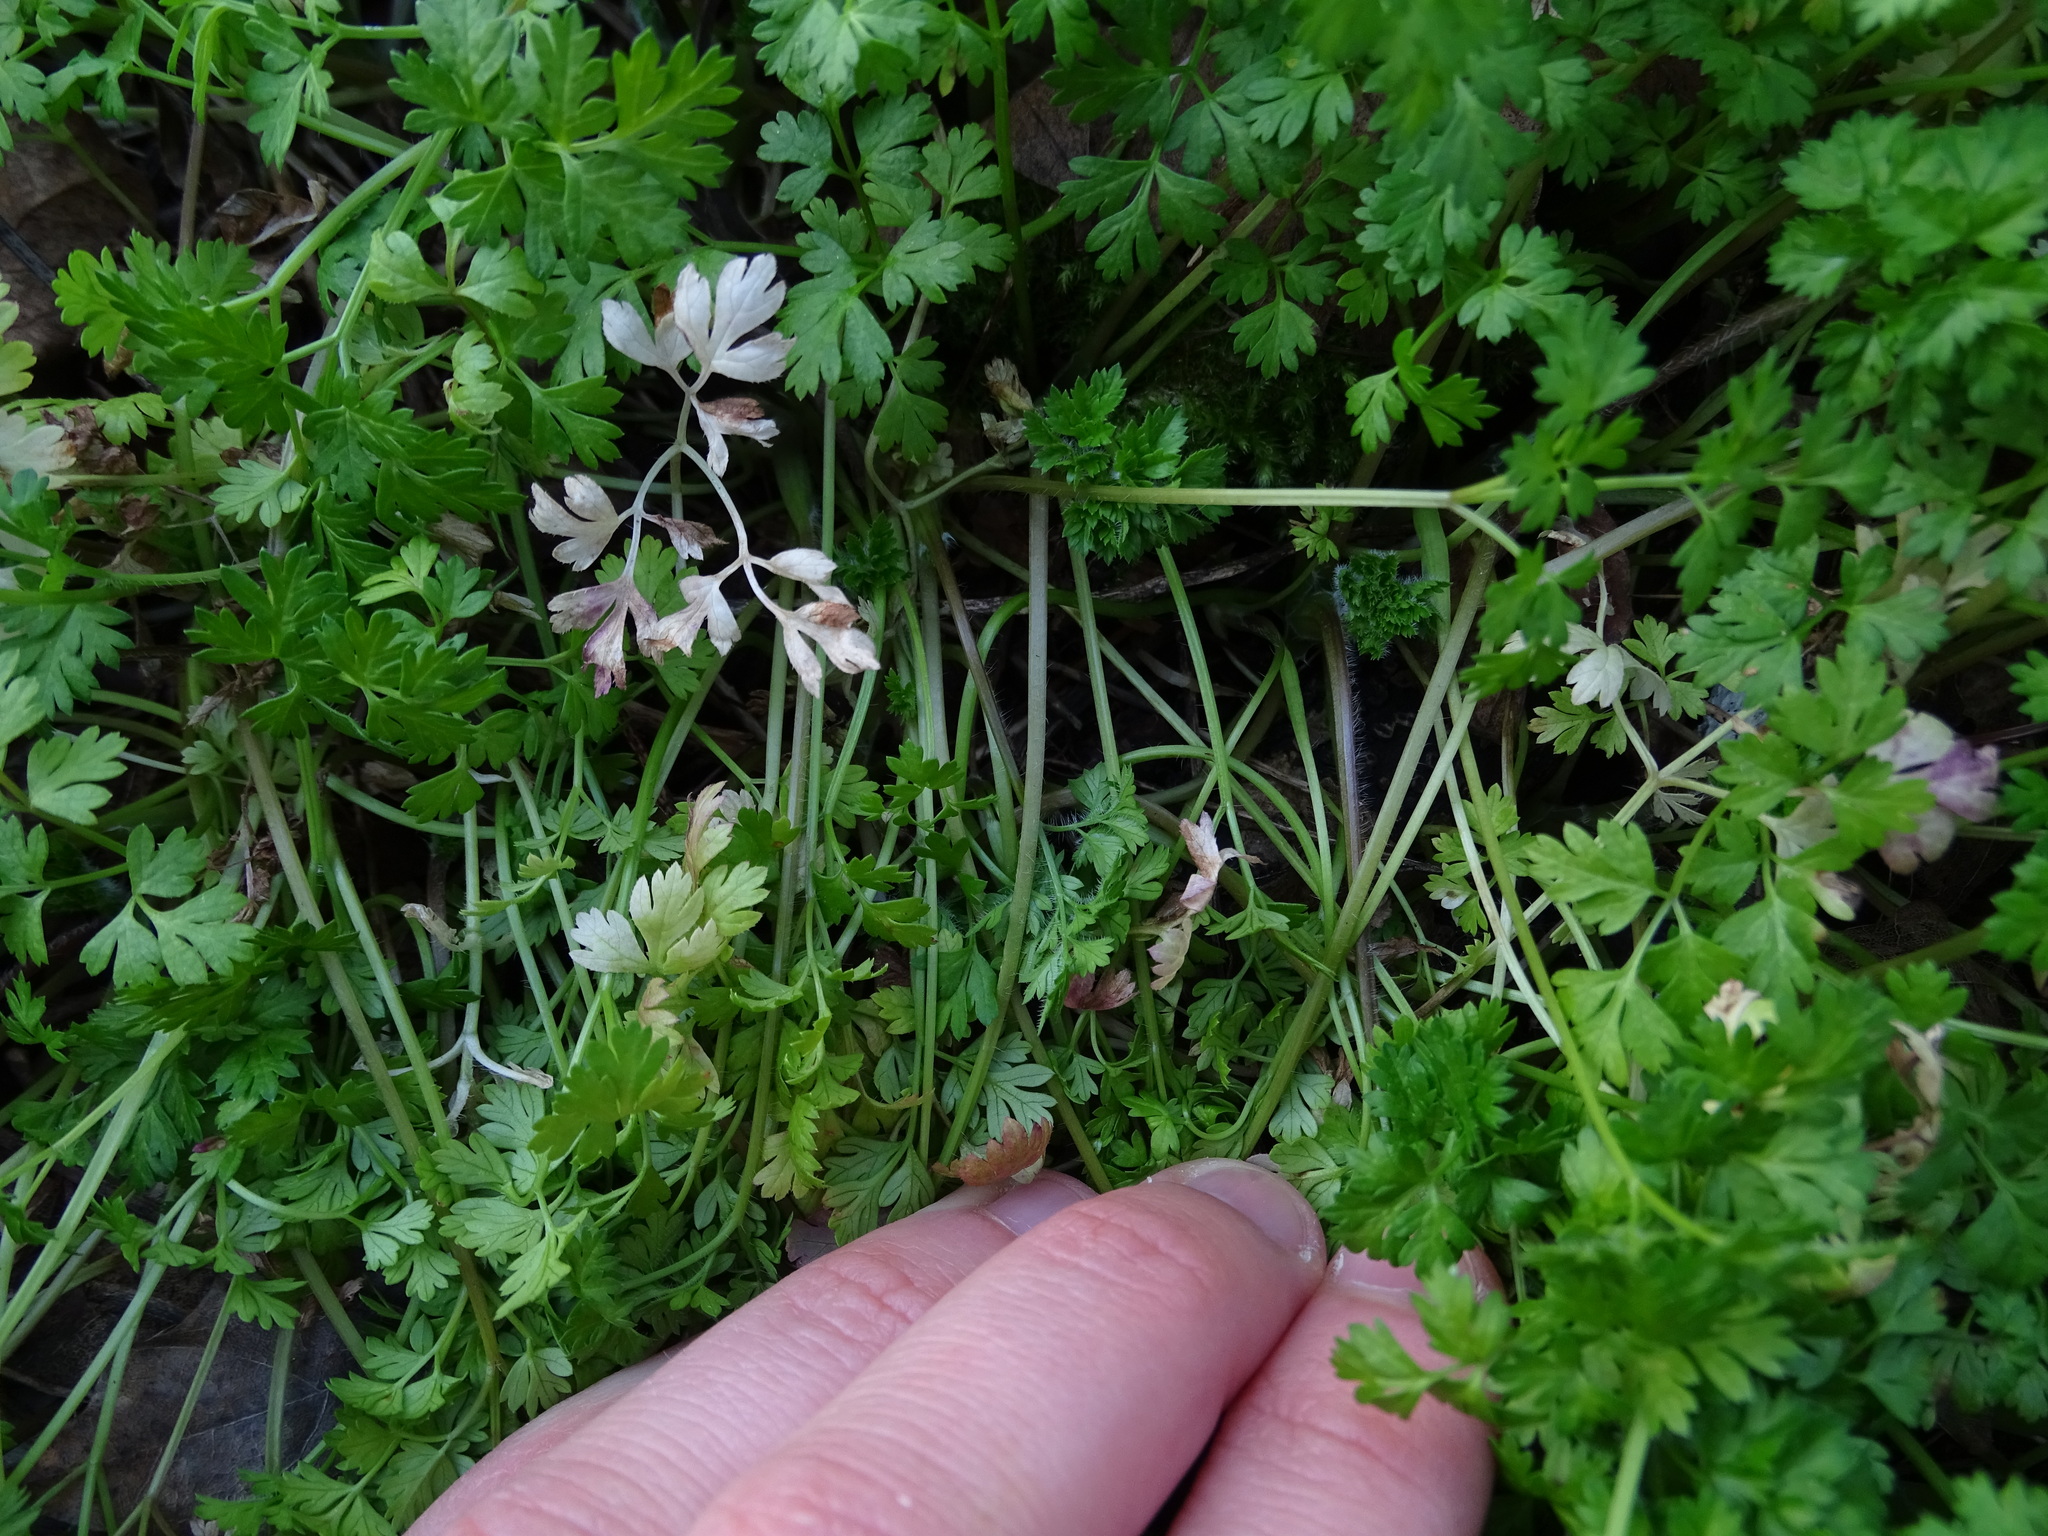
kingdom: Plantae
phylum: Tracheophyta
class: Magnoliopsida
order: Apiales
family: Apiaceae
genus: Anthriscus
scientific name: Anthriscus cerefolium
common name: Garden chervil
